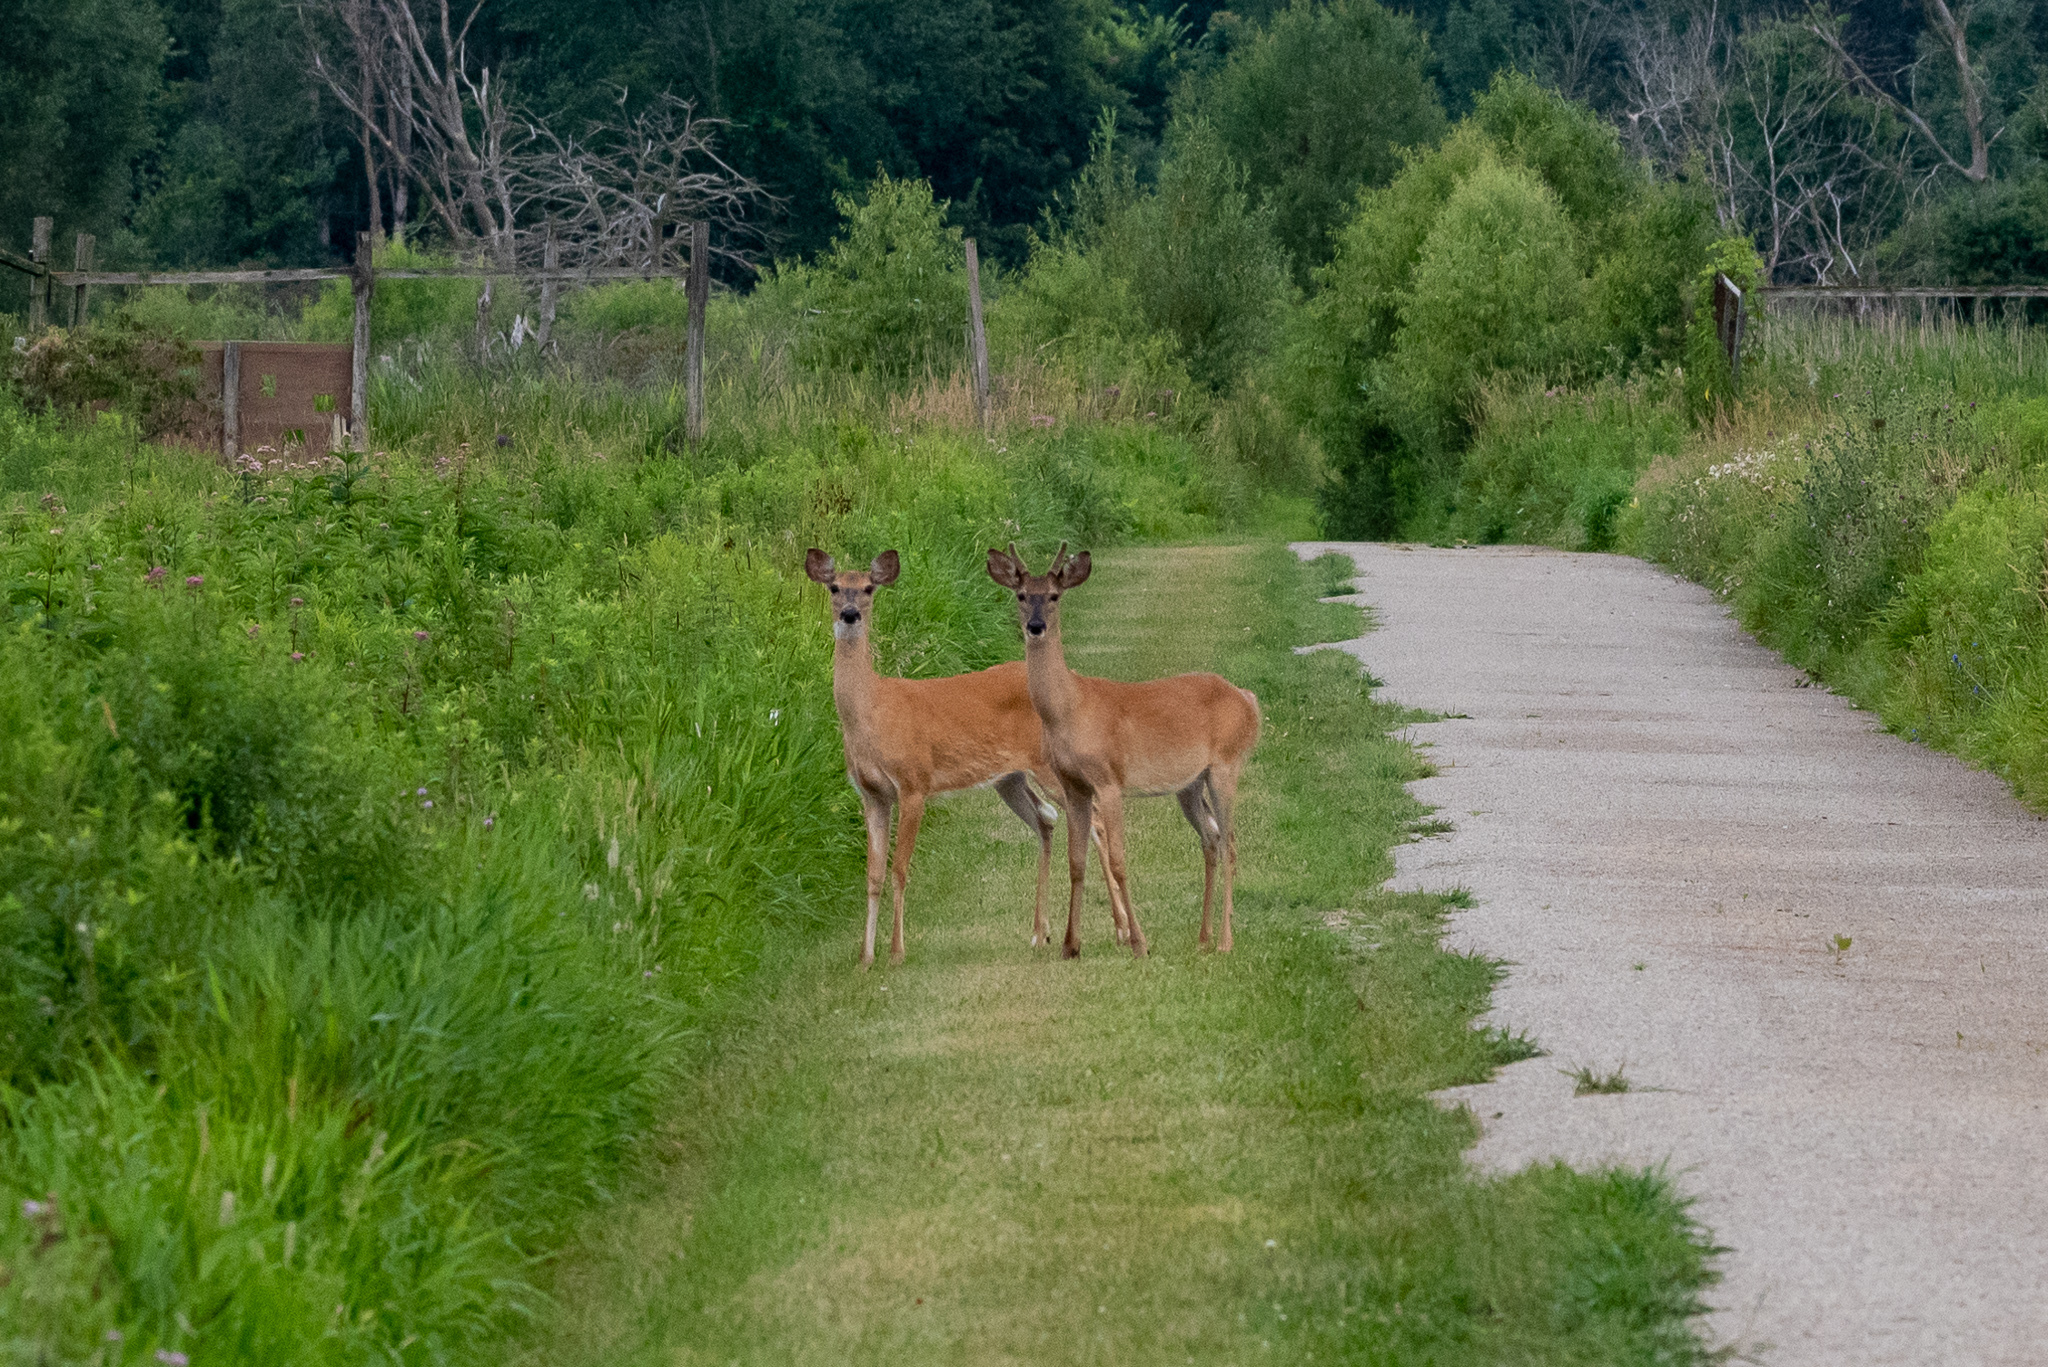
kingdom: Animalia
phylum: Chordata
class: Mammalia
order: Artiodactyla
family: Cervidae
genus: Odocoileus
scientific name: Odocoileus virginianus
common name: White-tailed deer
